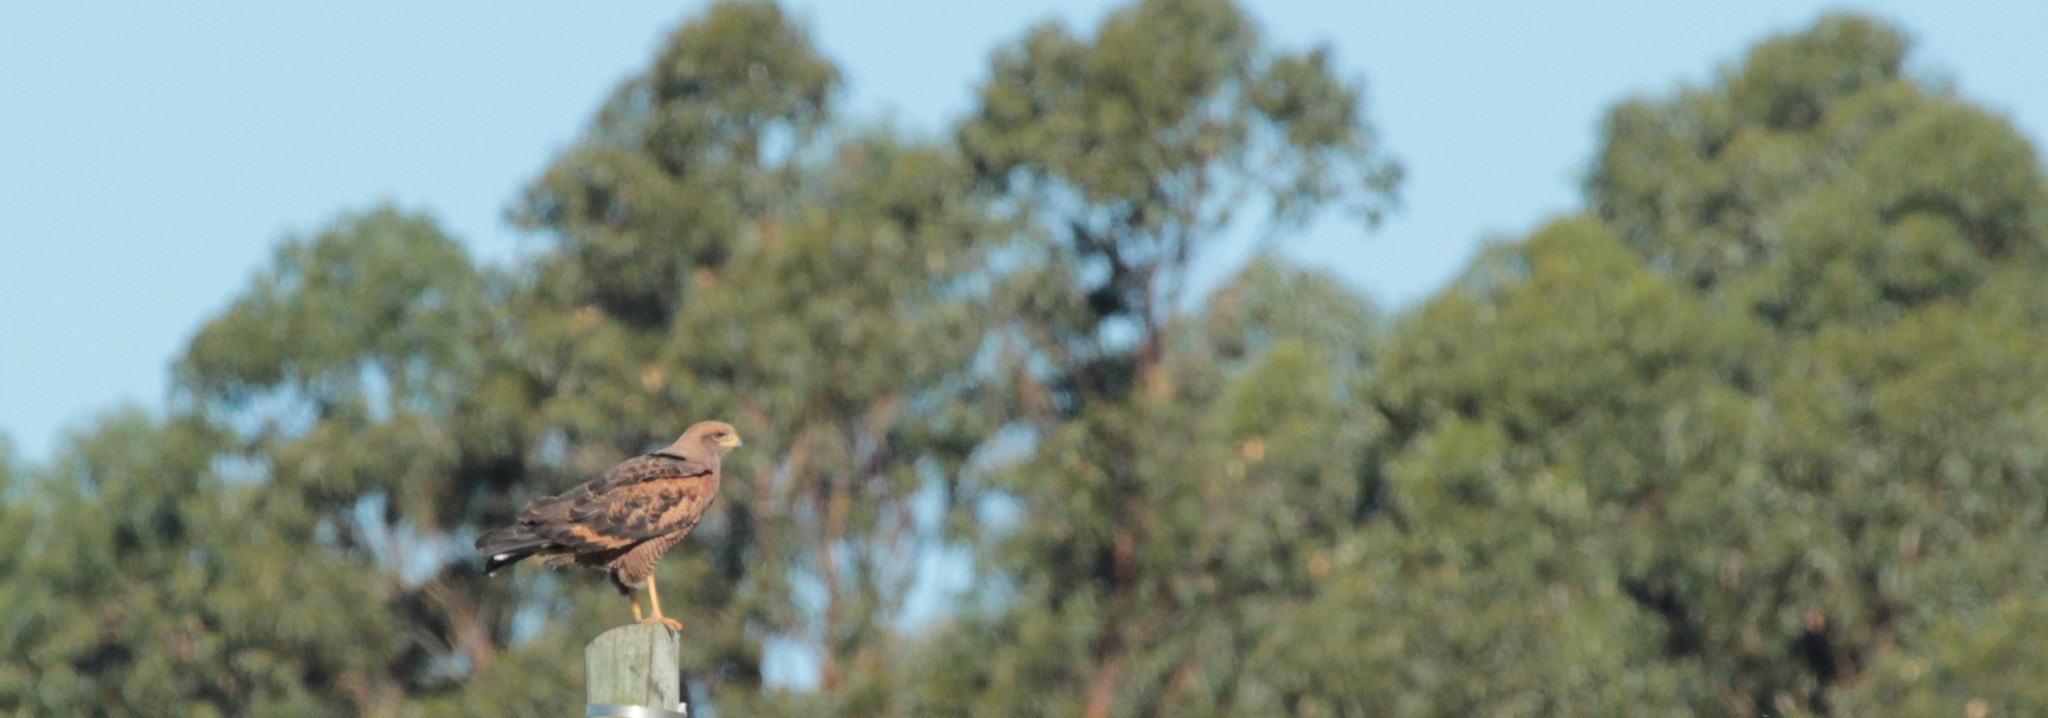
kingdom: Animalia
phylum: Chordata
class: Aves
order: Accipitriformes
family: Accipitridae
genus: Buteogallus
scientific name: Buteogallus meridionalis
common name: Savanna hawk
